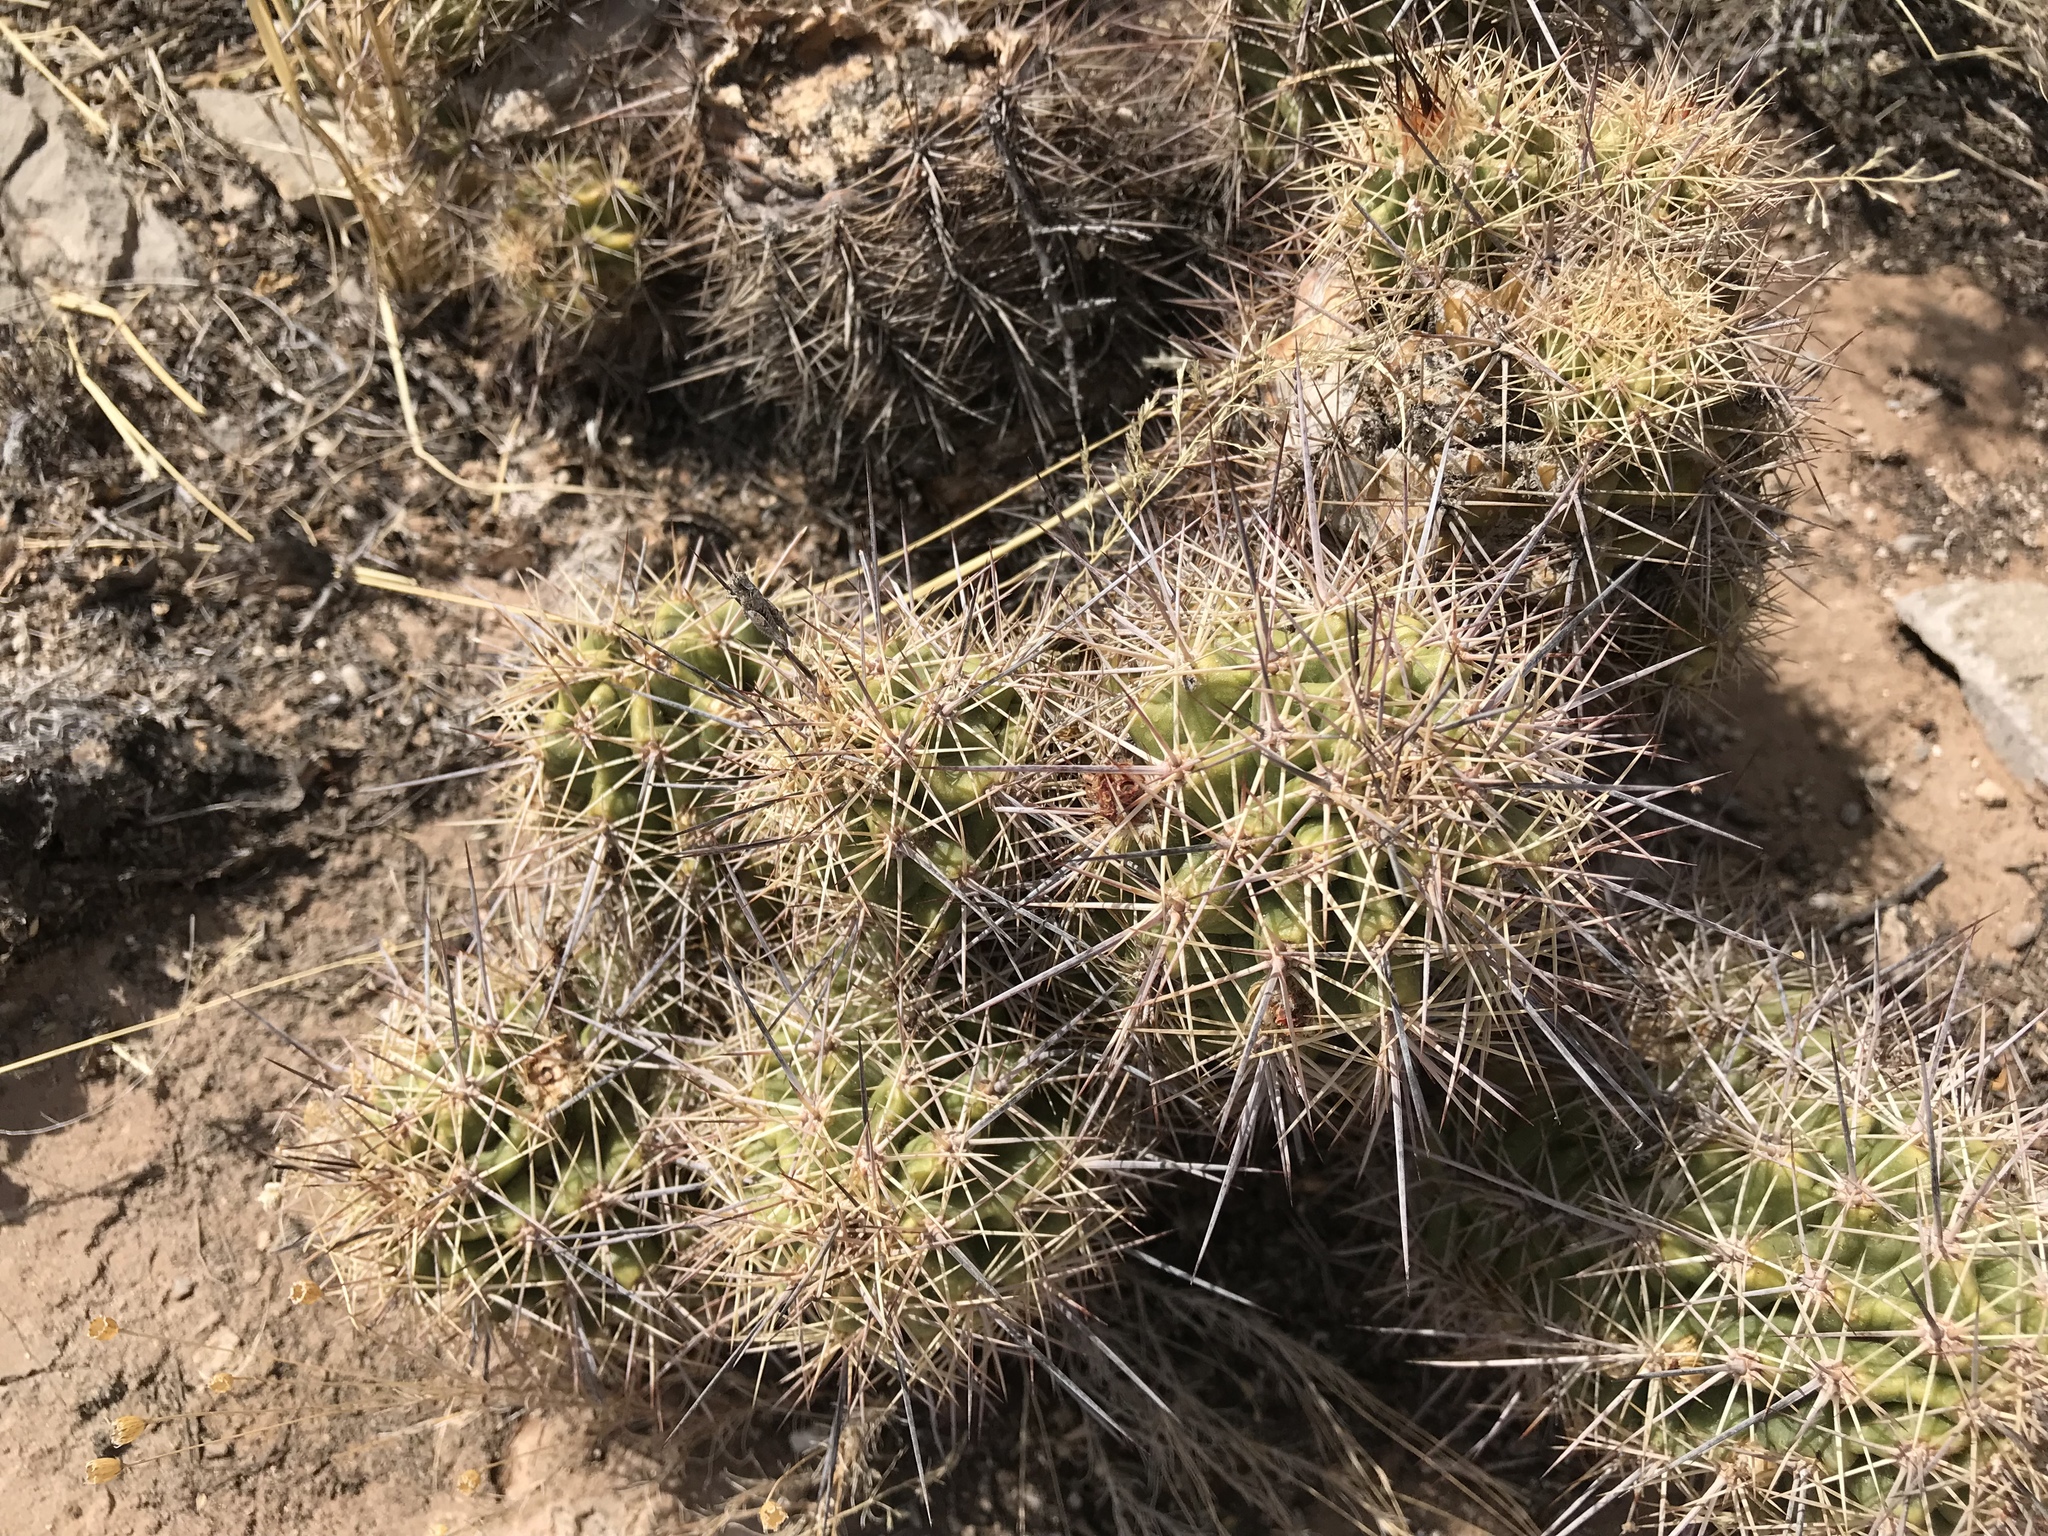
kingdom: Plantae
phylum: Tracheophyta
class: Magnoliopsida
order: Caryophyllales
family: Cactaceae
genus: Echinocereus
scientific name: Echinocereus coccineus
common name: Scarlet hedgehog cactus
